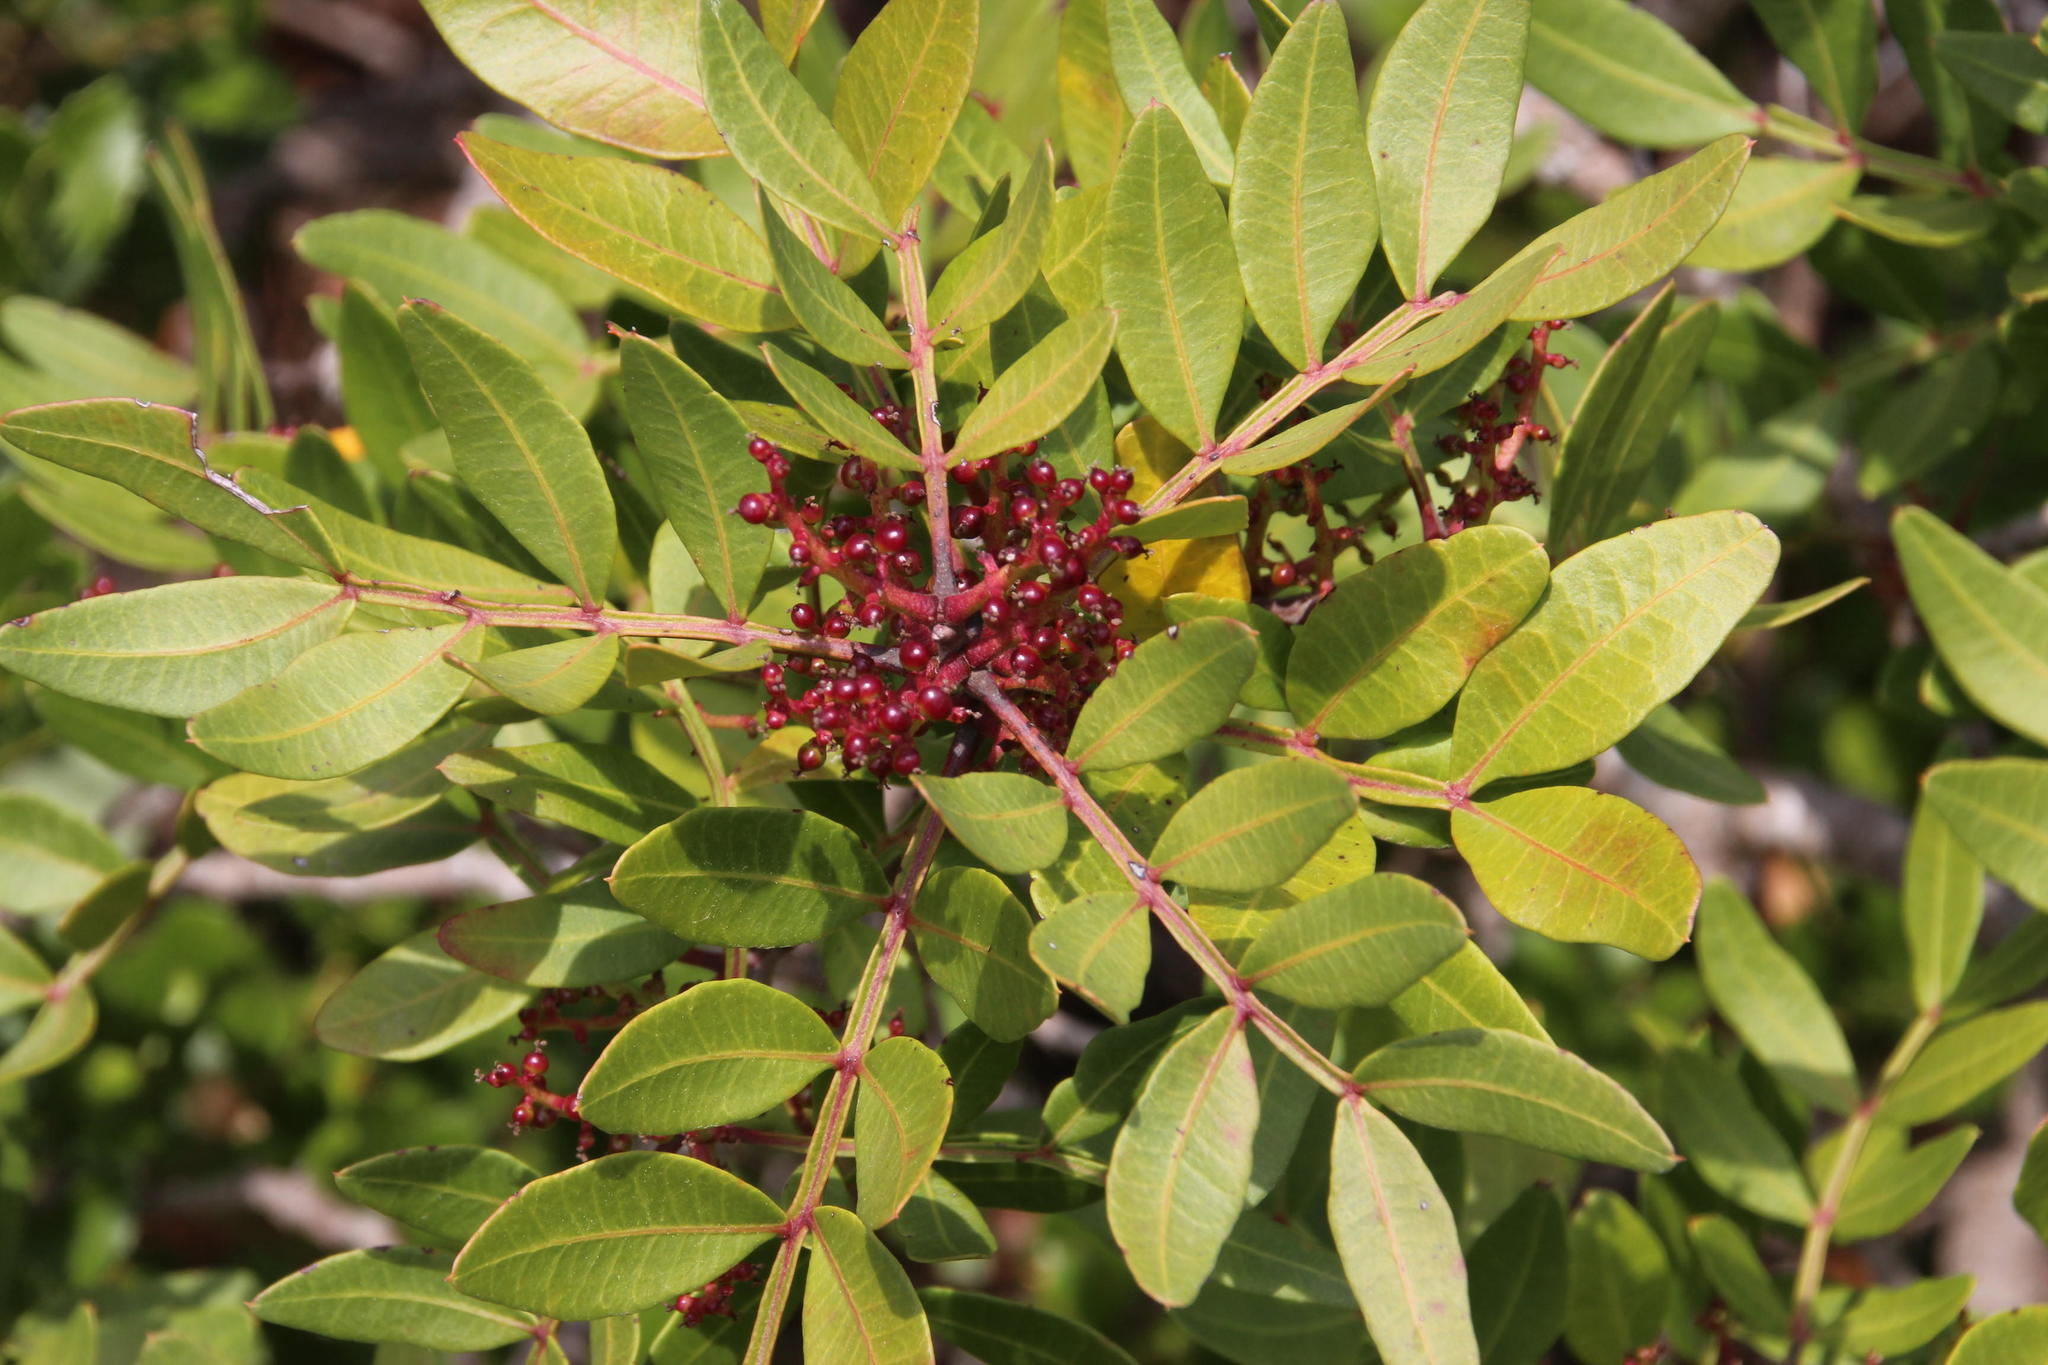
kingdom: Plantae
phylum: Tracheophyta
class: Magnoliopsida
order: Sapindales
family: Anacardiaceae
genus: Pistacia
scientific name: Pistacia lentiscus
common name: Lentisk
